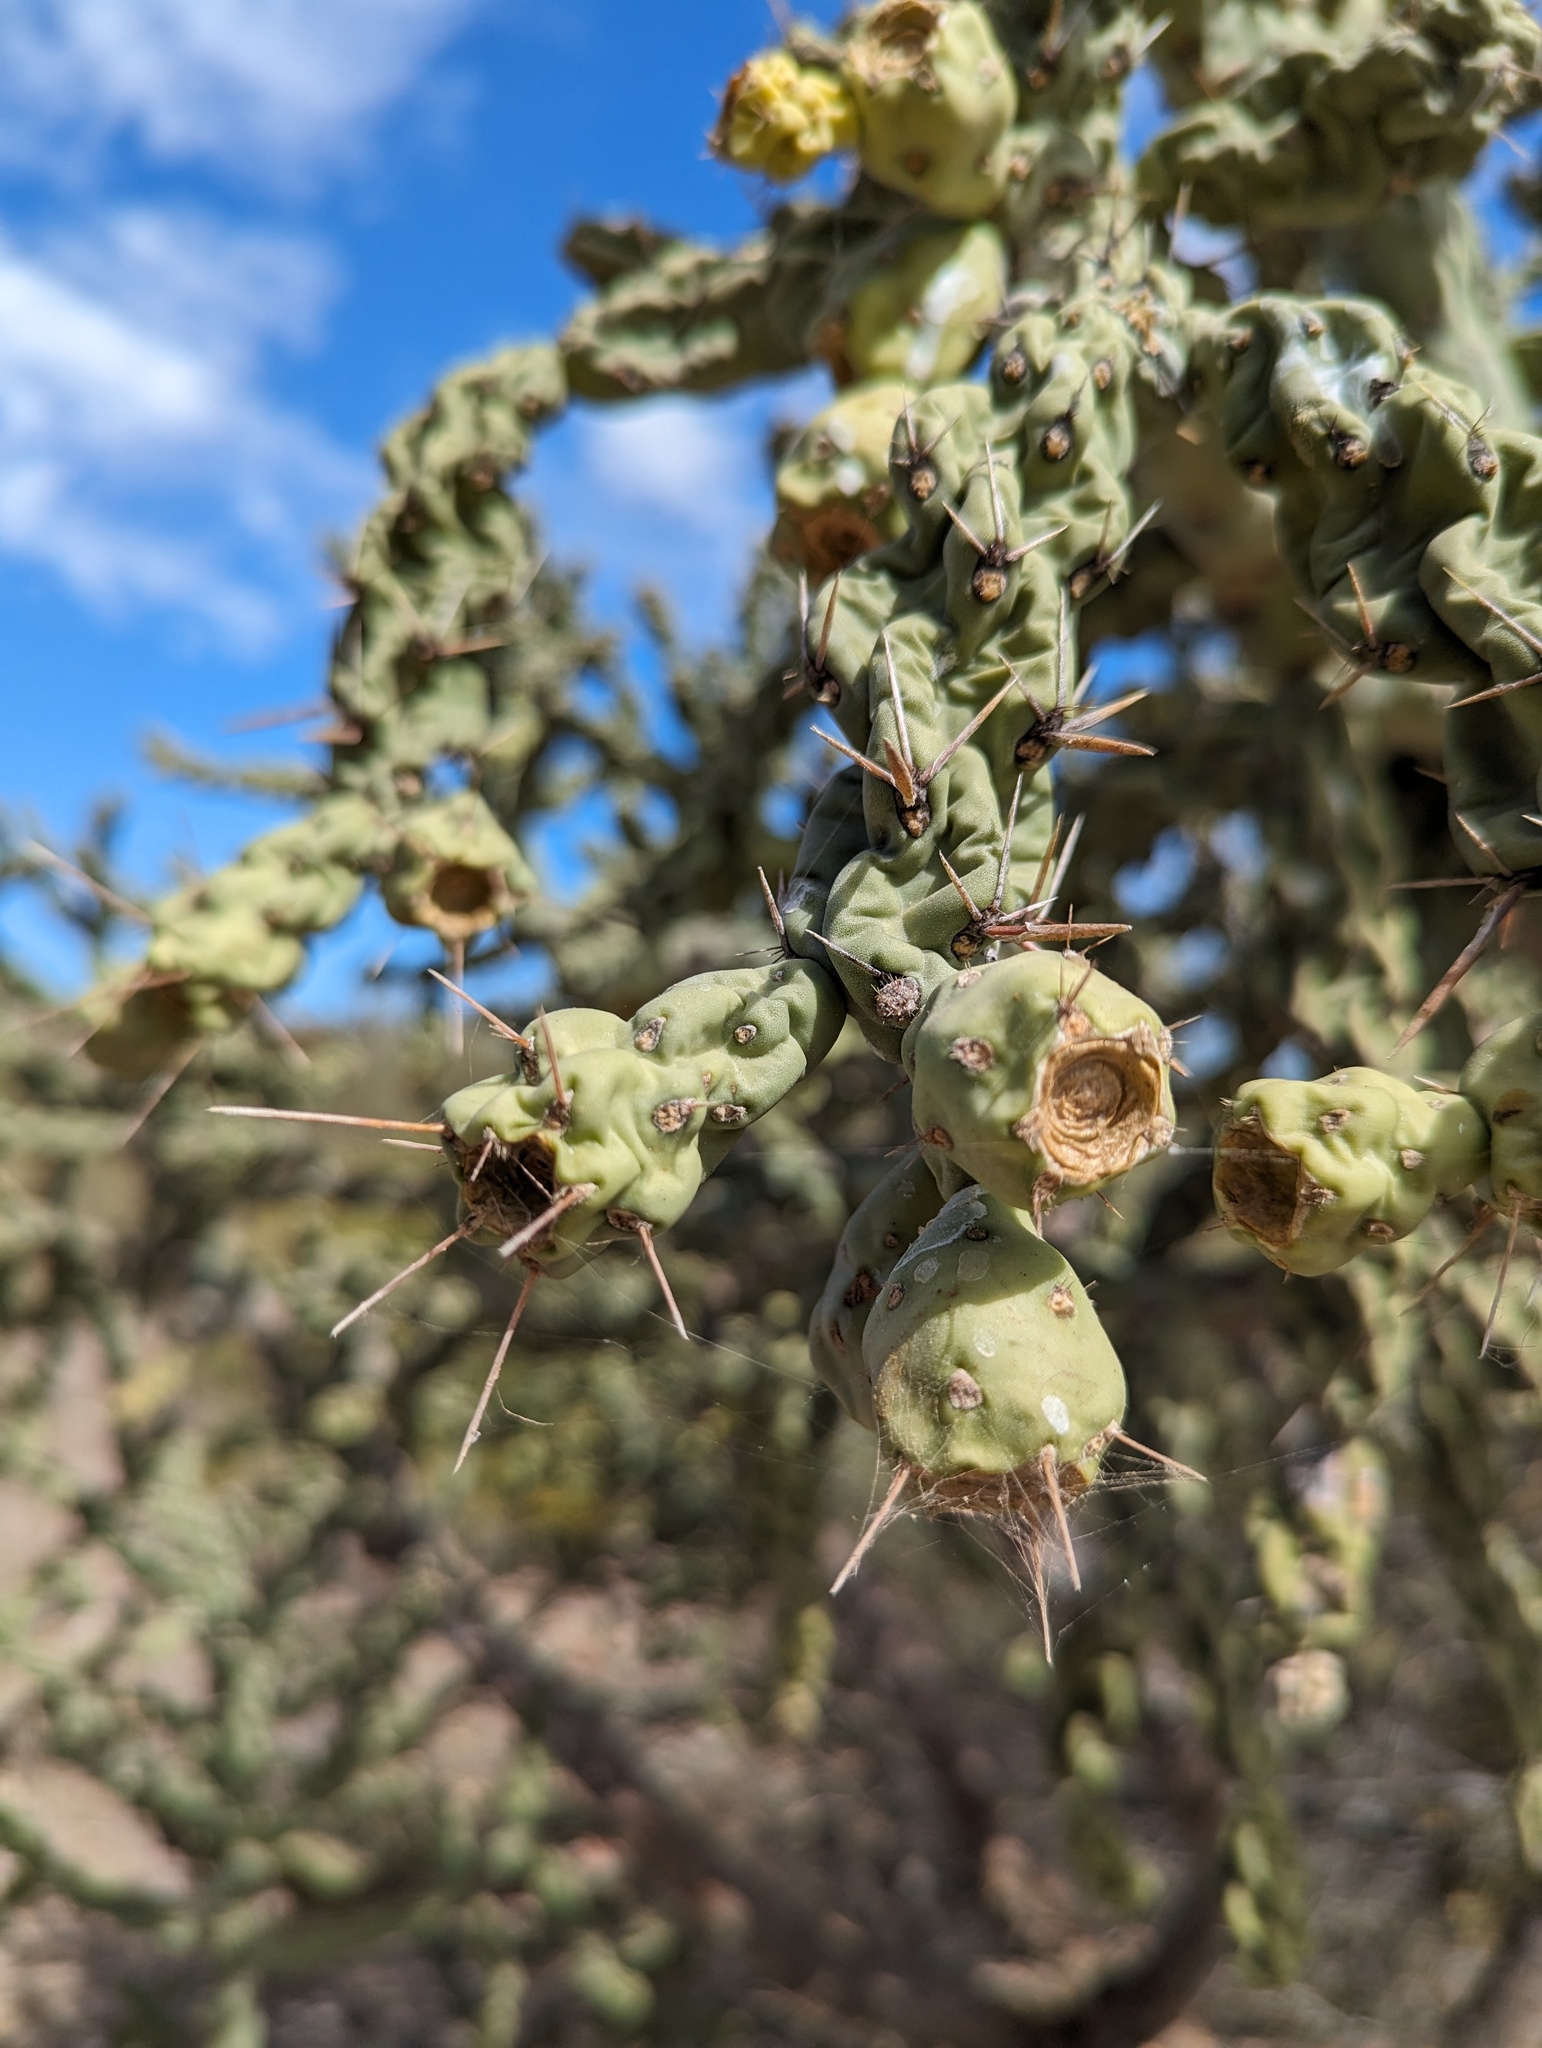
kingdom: Plantae
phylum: Tracheophyta
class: Magnoliopsida
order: Caryophyllales
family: Cactaceae
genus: Cylindropuntia
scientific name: Cylindropuntia cholla
